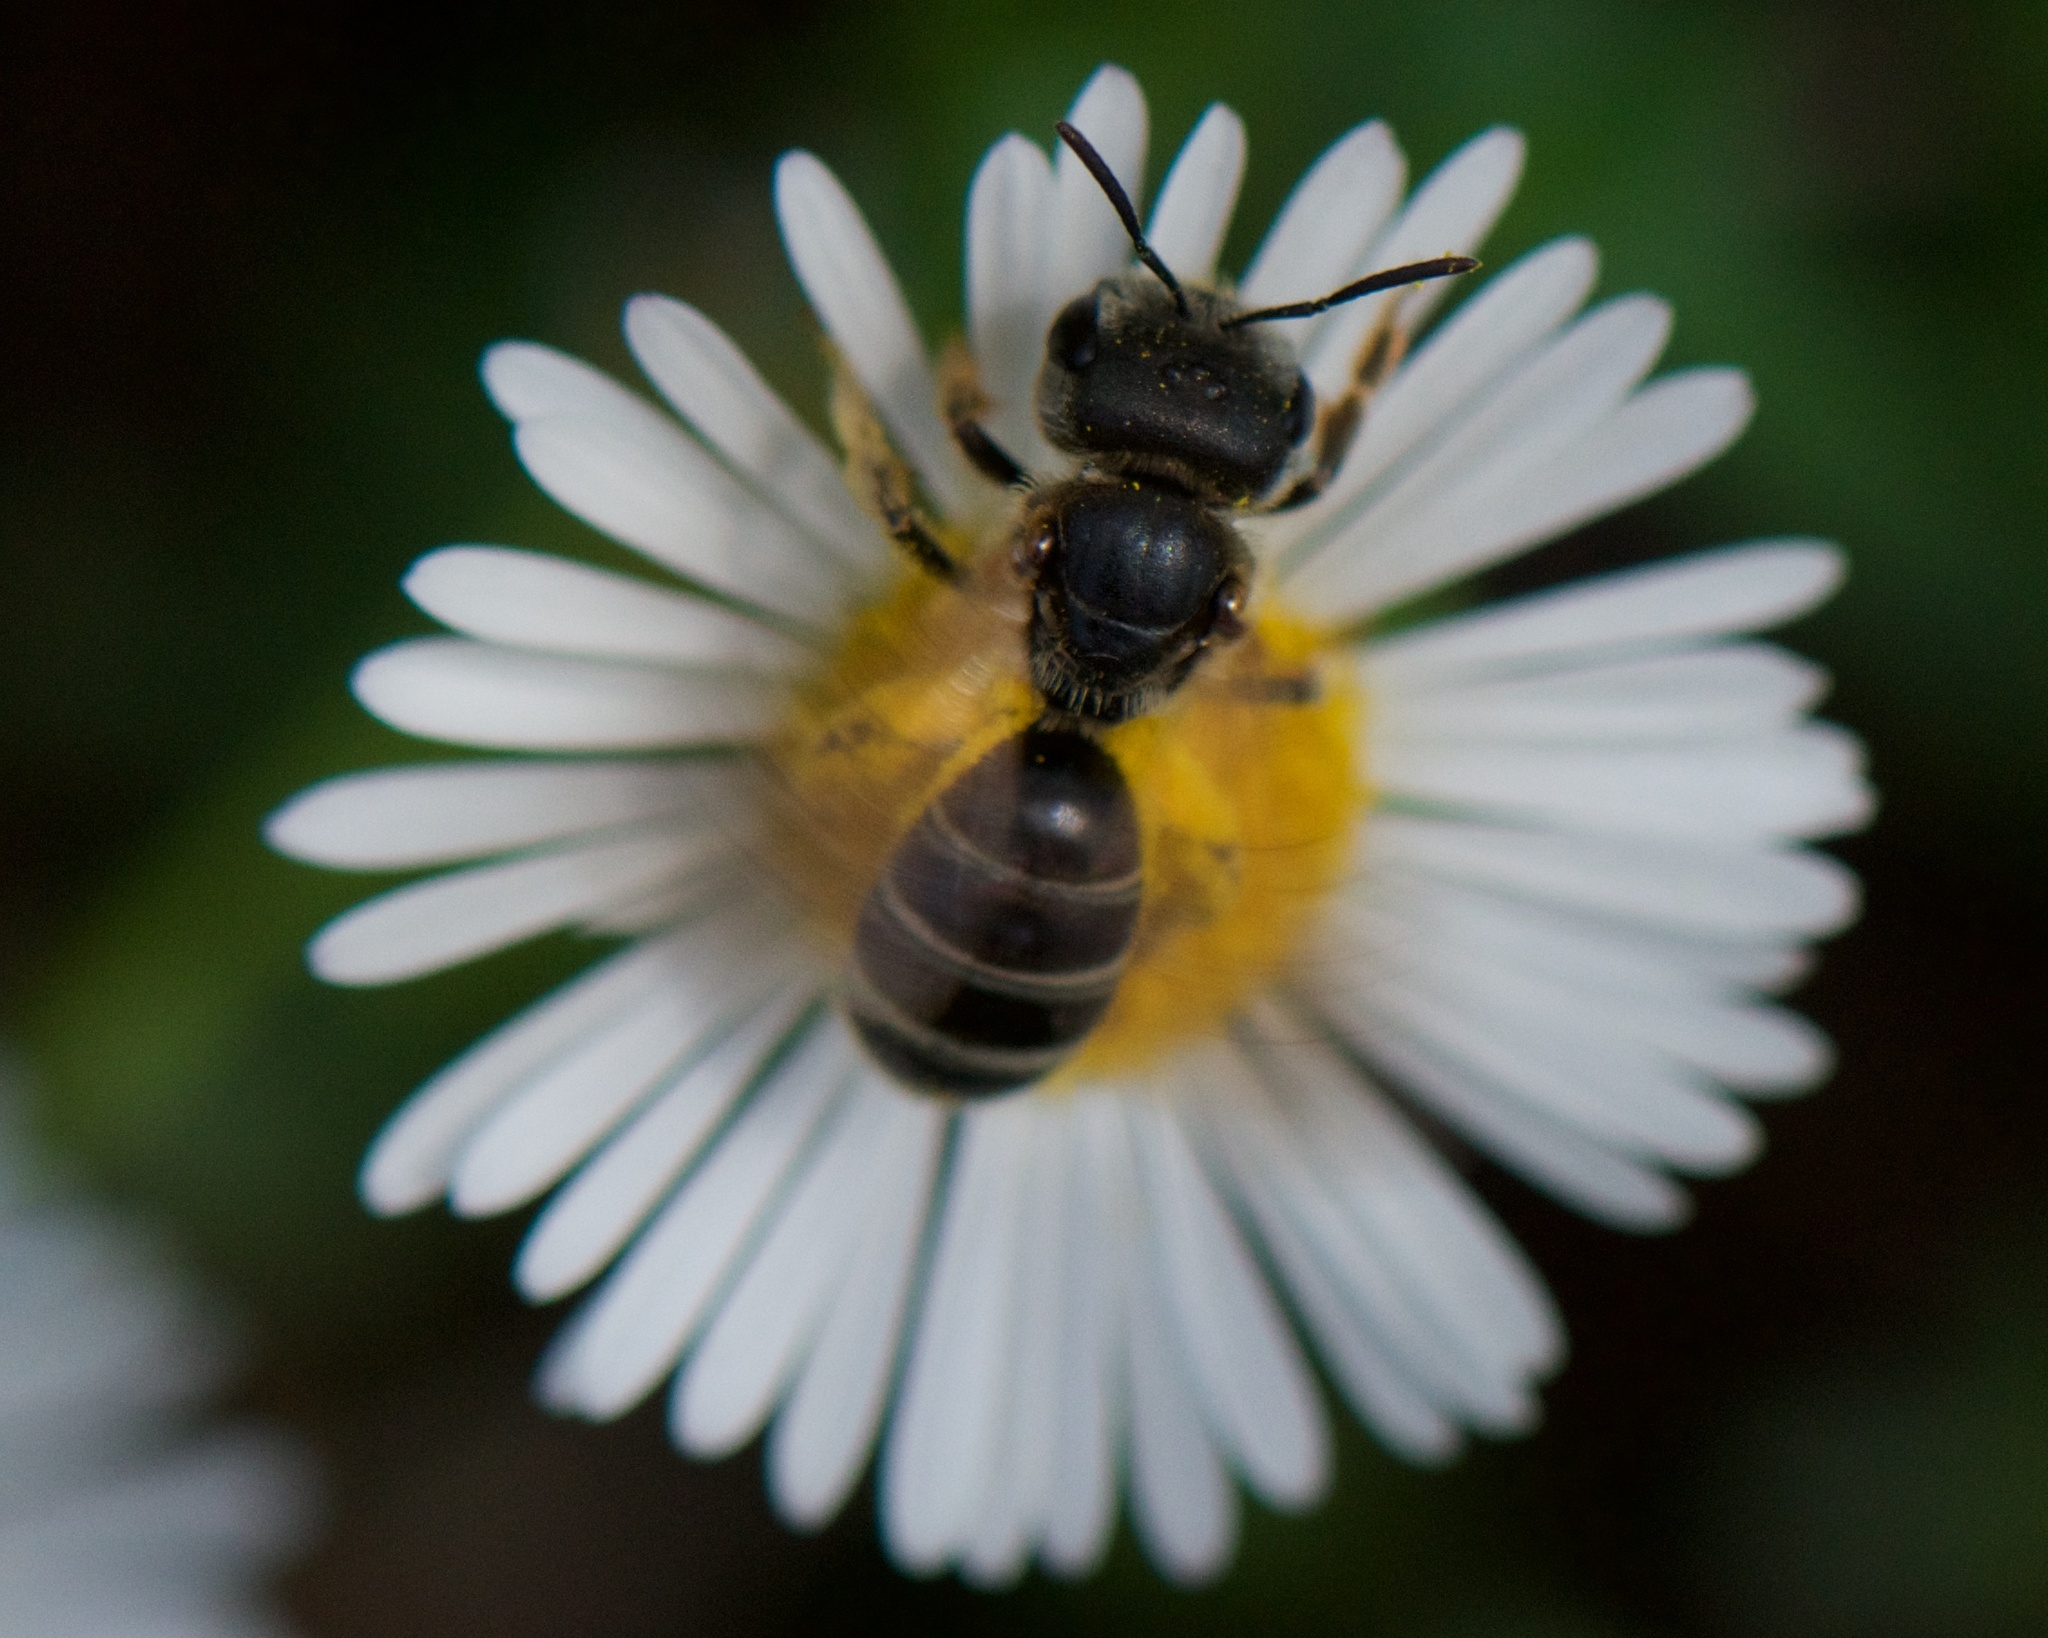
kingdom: Animalia
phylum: Arthropoda
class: Insecta
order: Hymenoptera
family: Halictidae
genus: Halictus
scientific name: Halictus ligatus
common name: Ligated furrow bee
